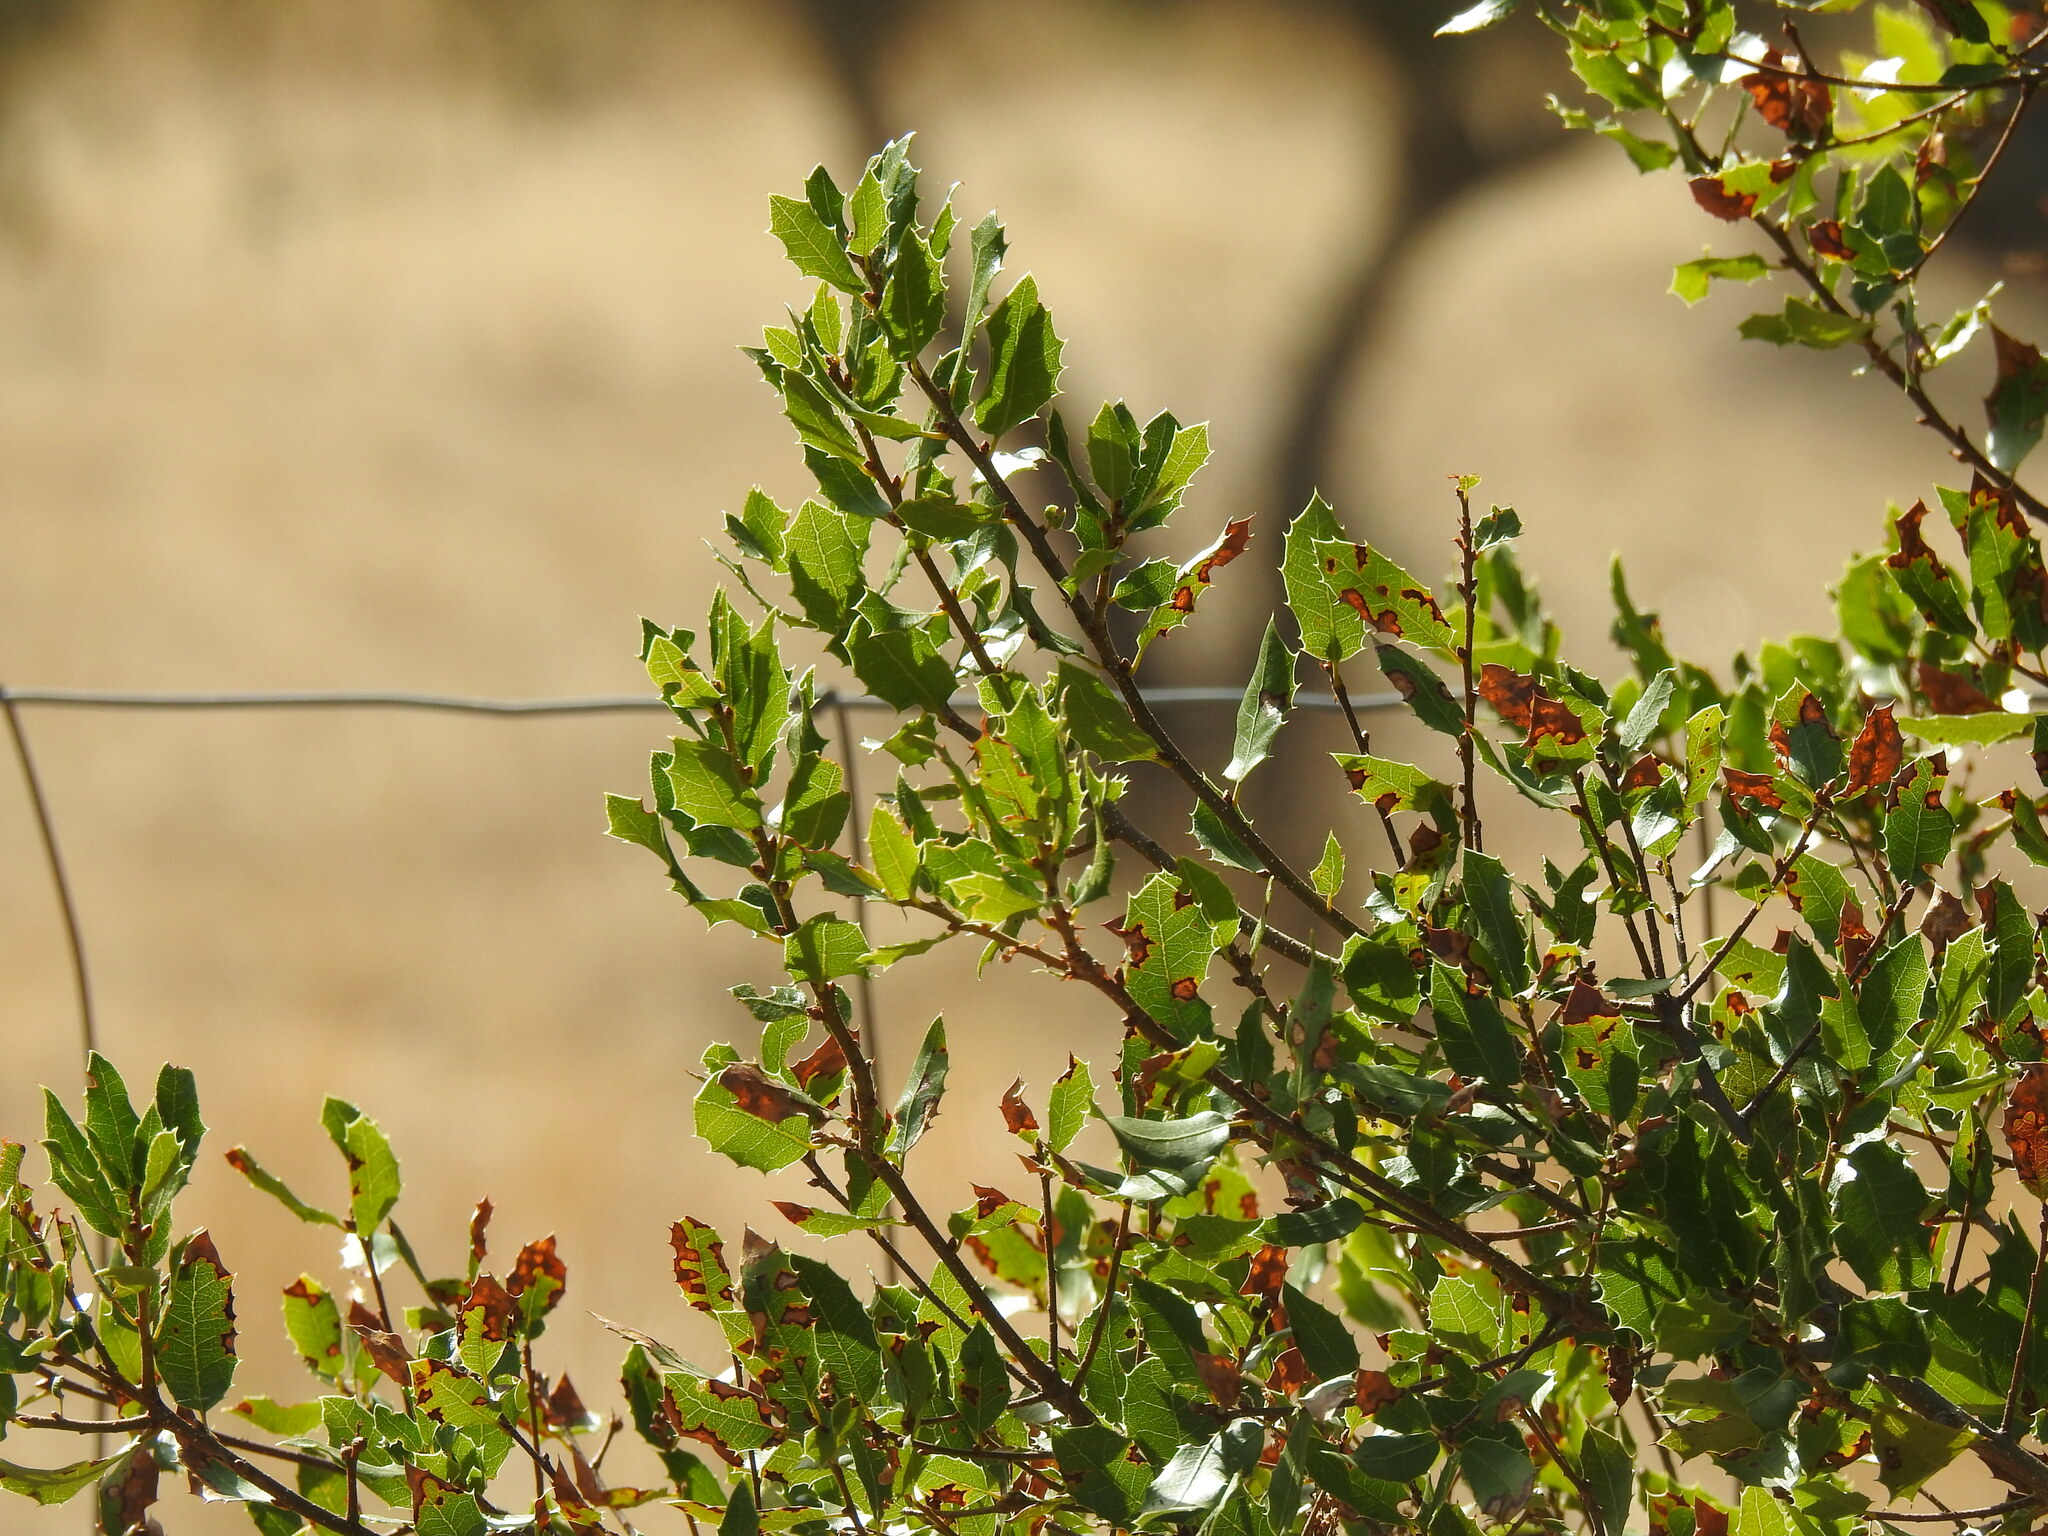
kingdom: Plantae
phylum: Tracheophyta
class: Magnoliopsida
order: Fagales
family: Fagaceae
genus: Quercus
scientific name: Quercus coccifera
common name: Kermes oak
